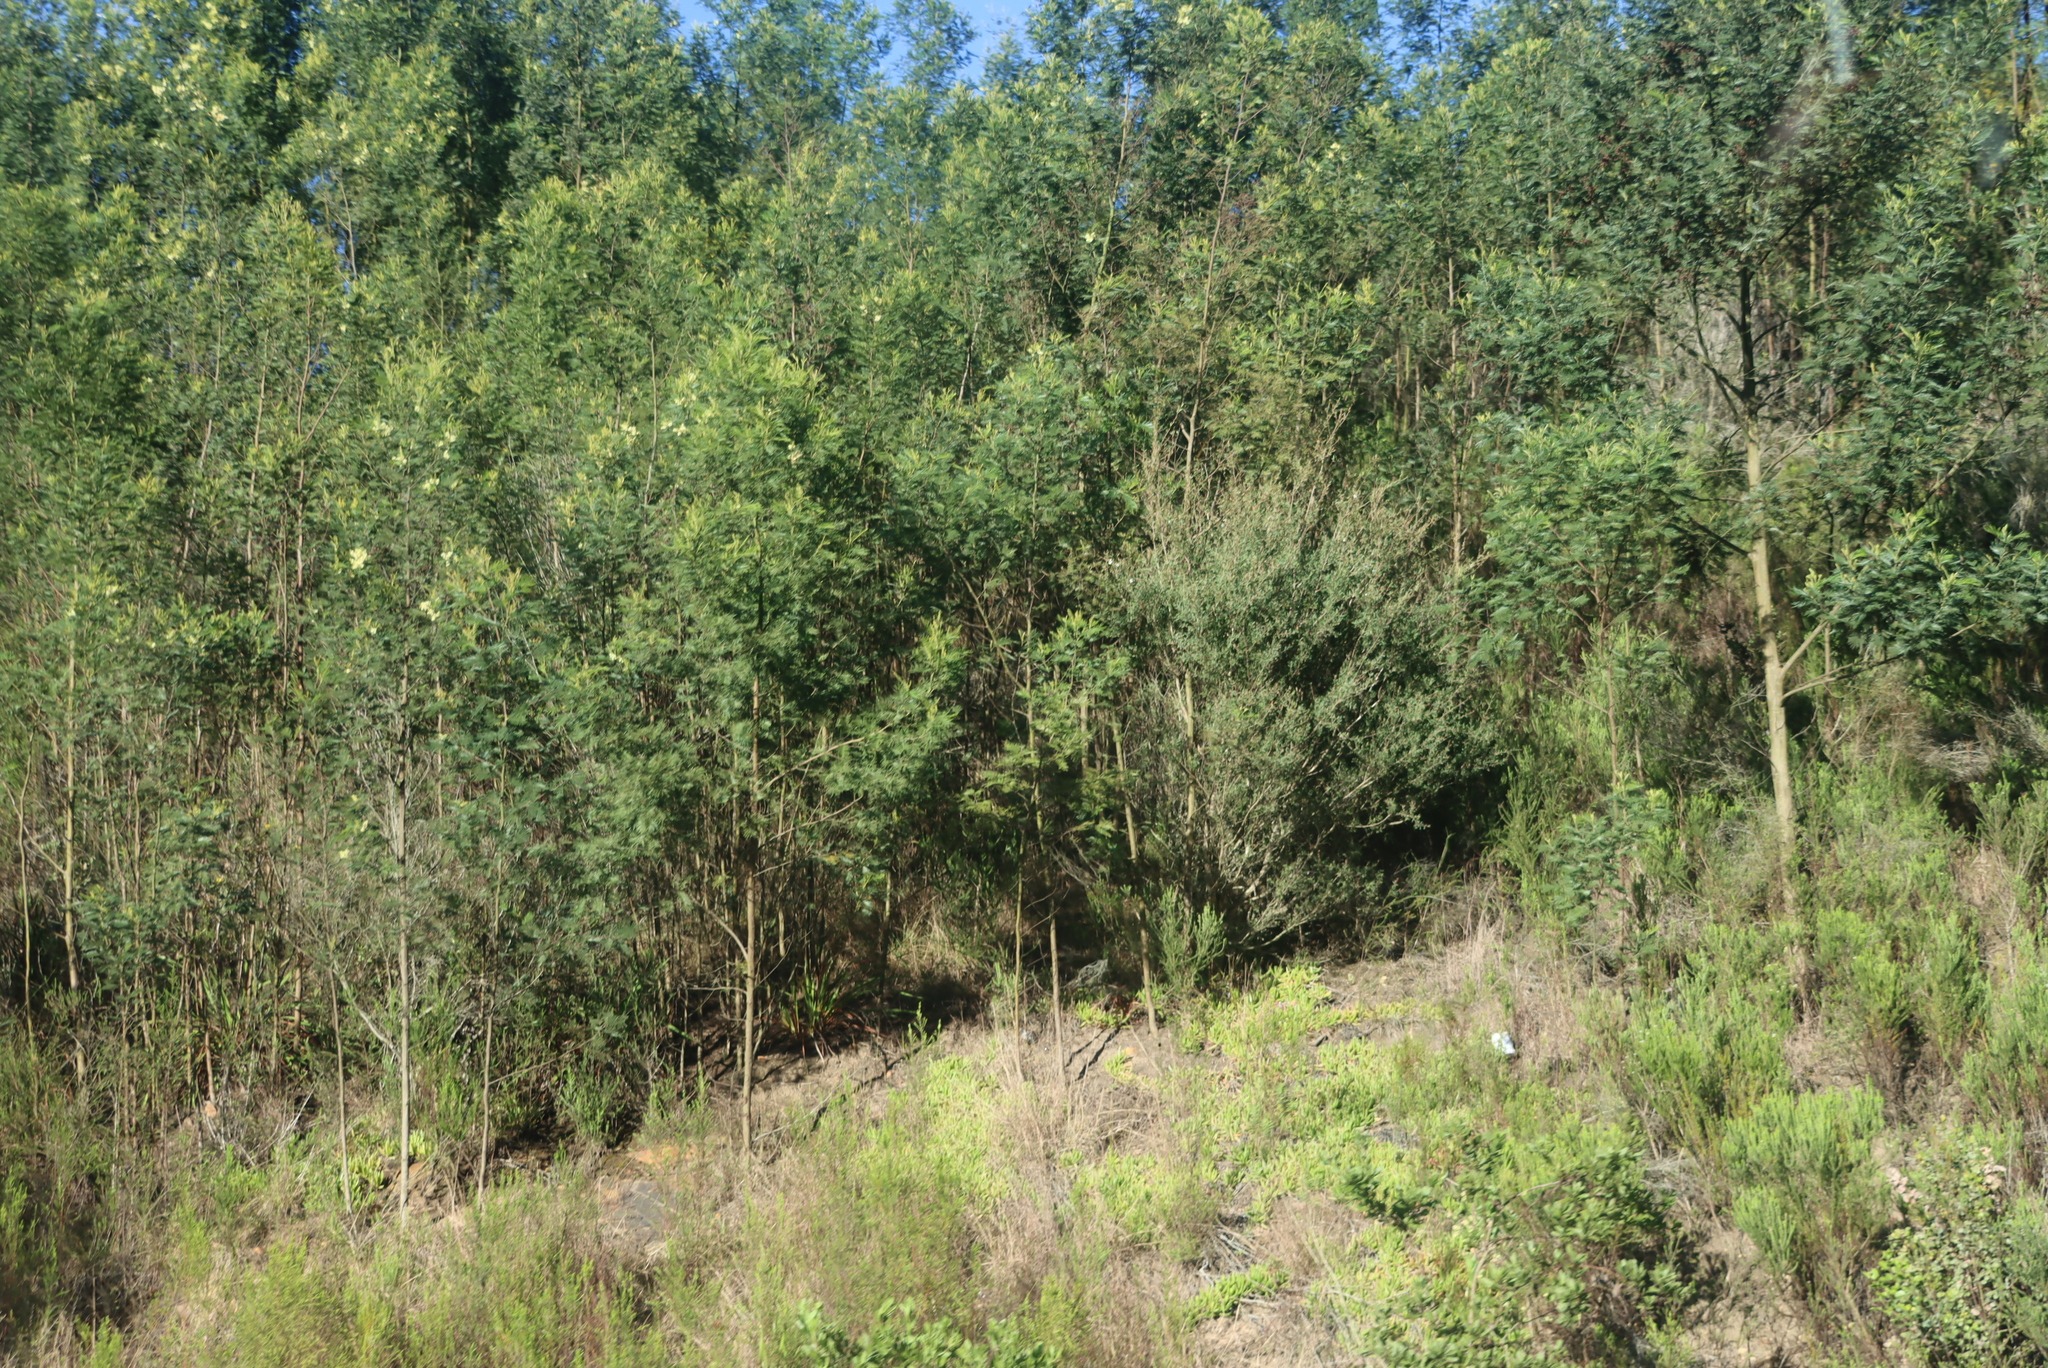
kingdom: Plantae
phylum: Tracheophyta
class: Magnoliopsida
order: Fabales
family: Fabaceae
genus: Acacia
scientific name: Acacia mearnsii
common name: Black wattle
